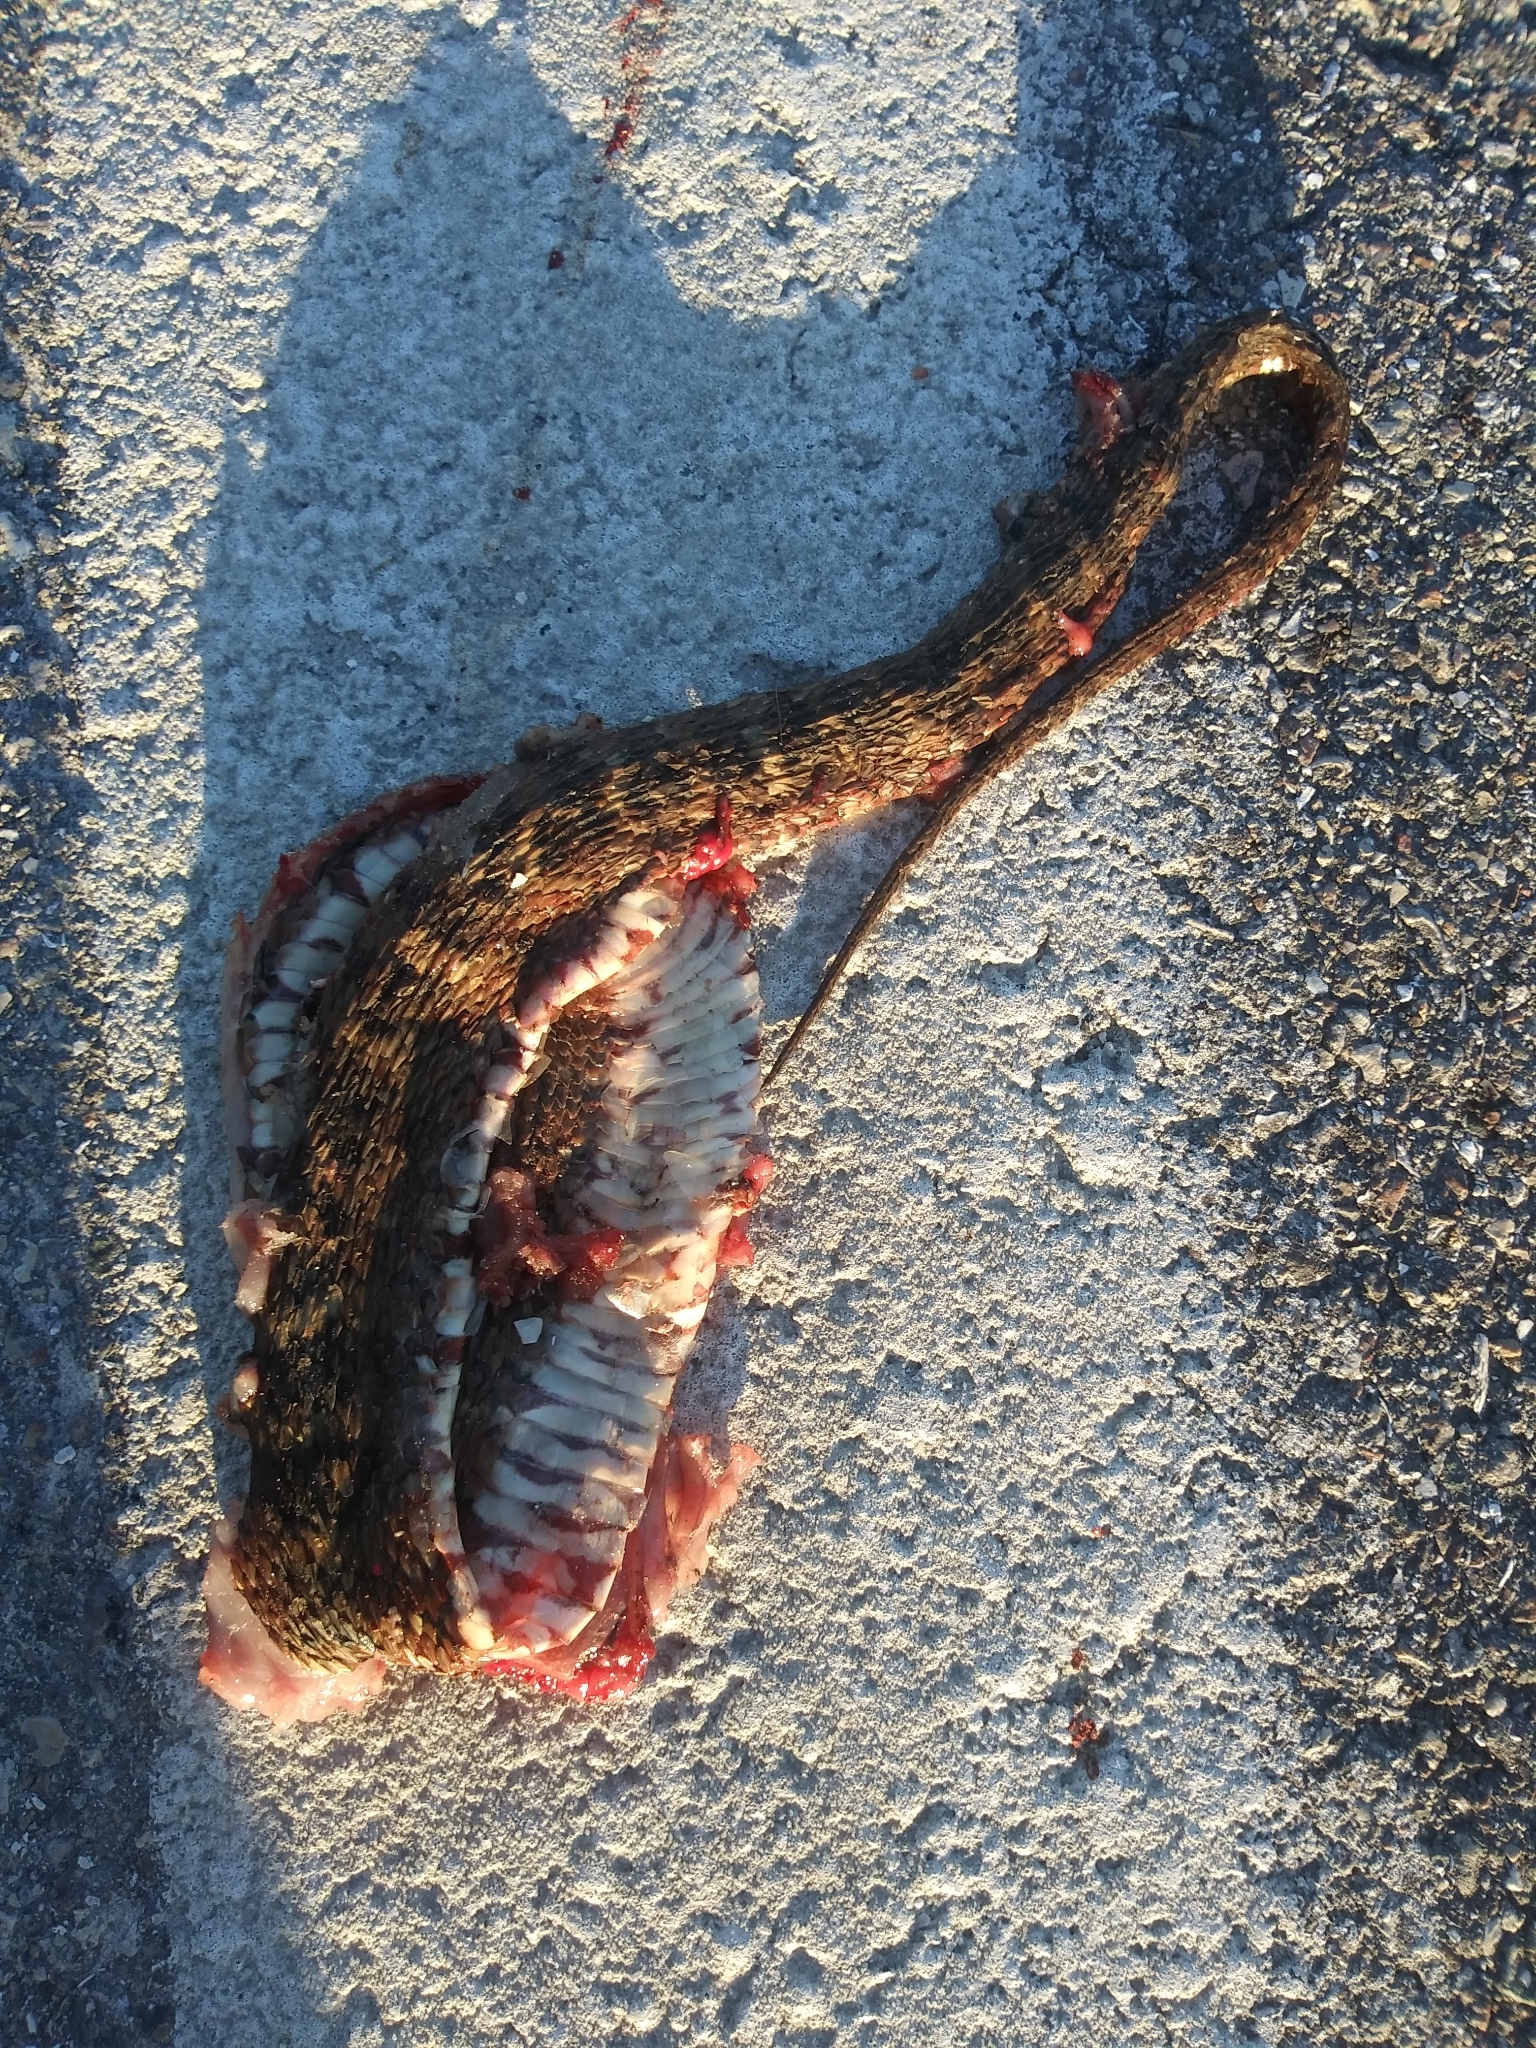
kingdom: Animalia
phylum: Chordata
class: Squamata
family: Colubridae
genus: Nerodia
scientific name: Nerodia fasciata
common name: Southern water snake
